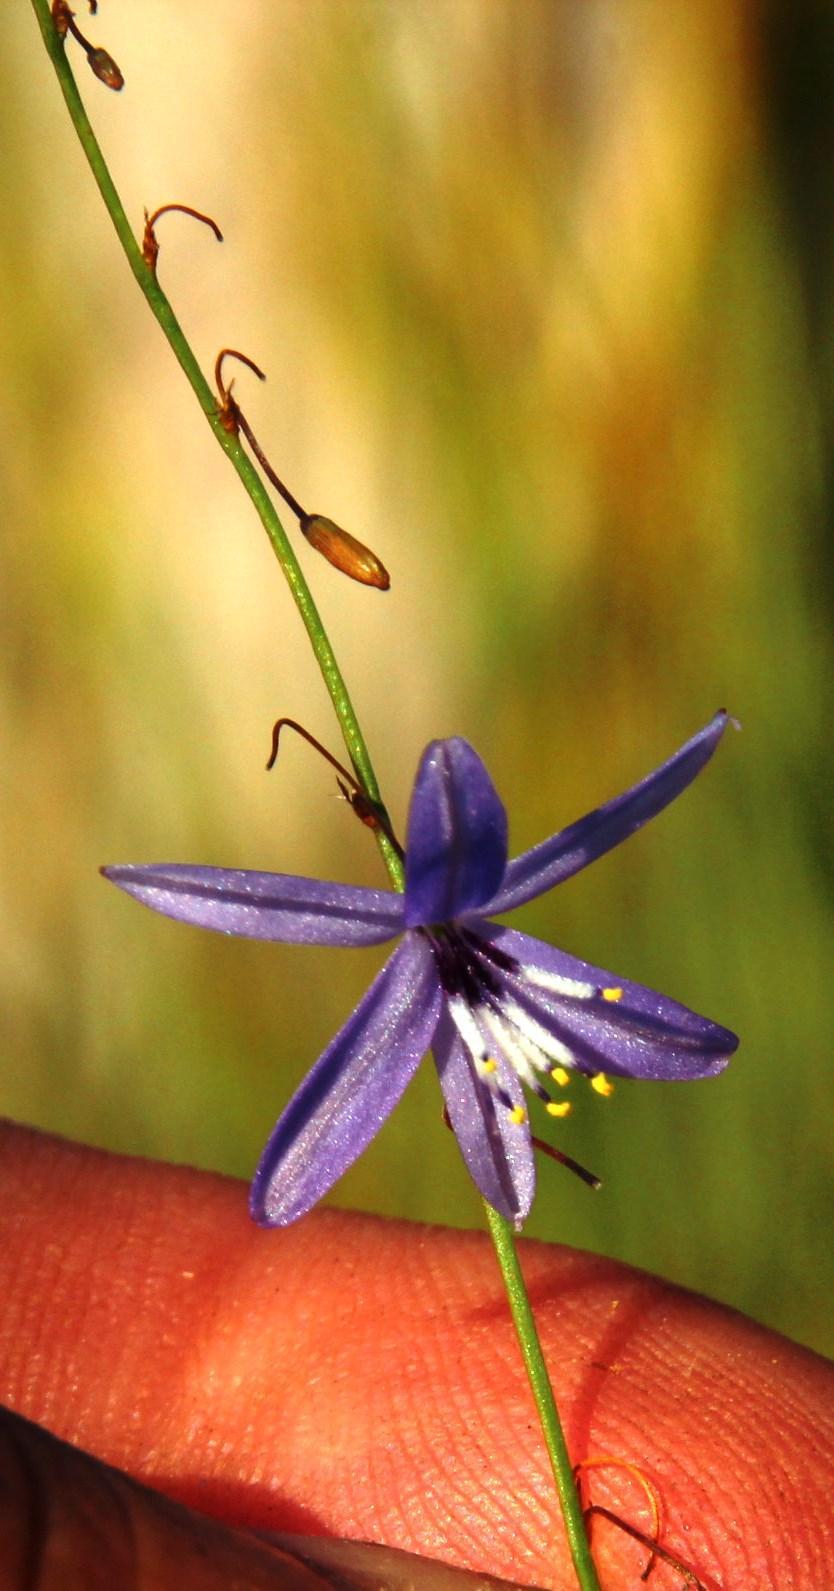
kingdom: Plantae
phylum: Tracheophyta
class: Liliopsida
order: Asparagales
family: Asphodelaceae
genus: Caesia
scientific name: Caesia contorta
